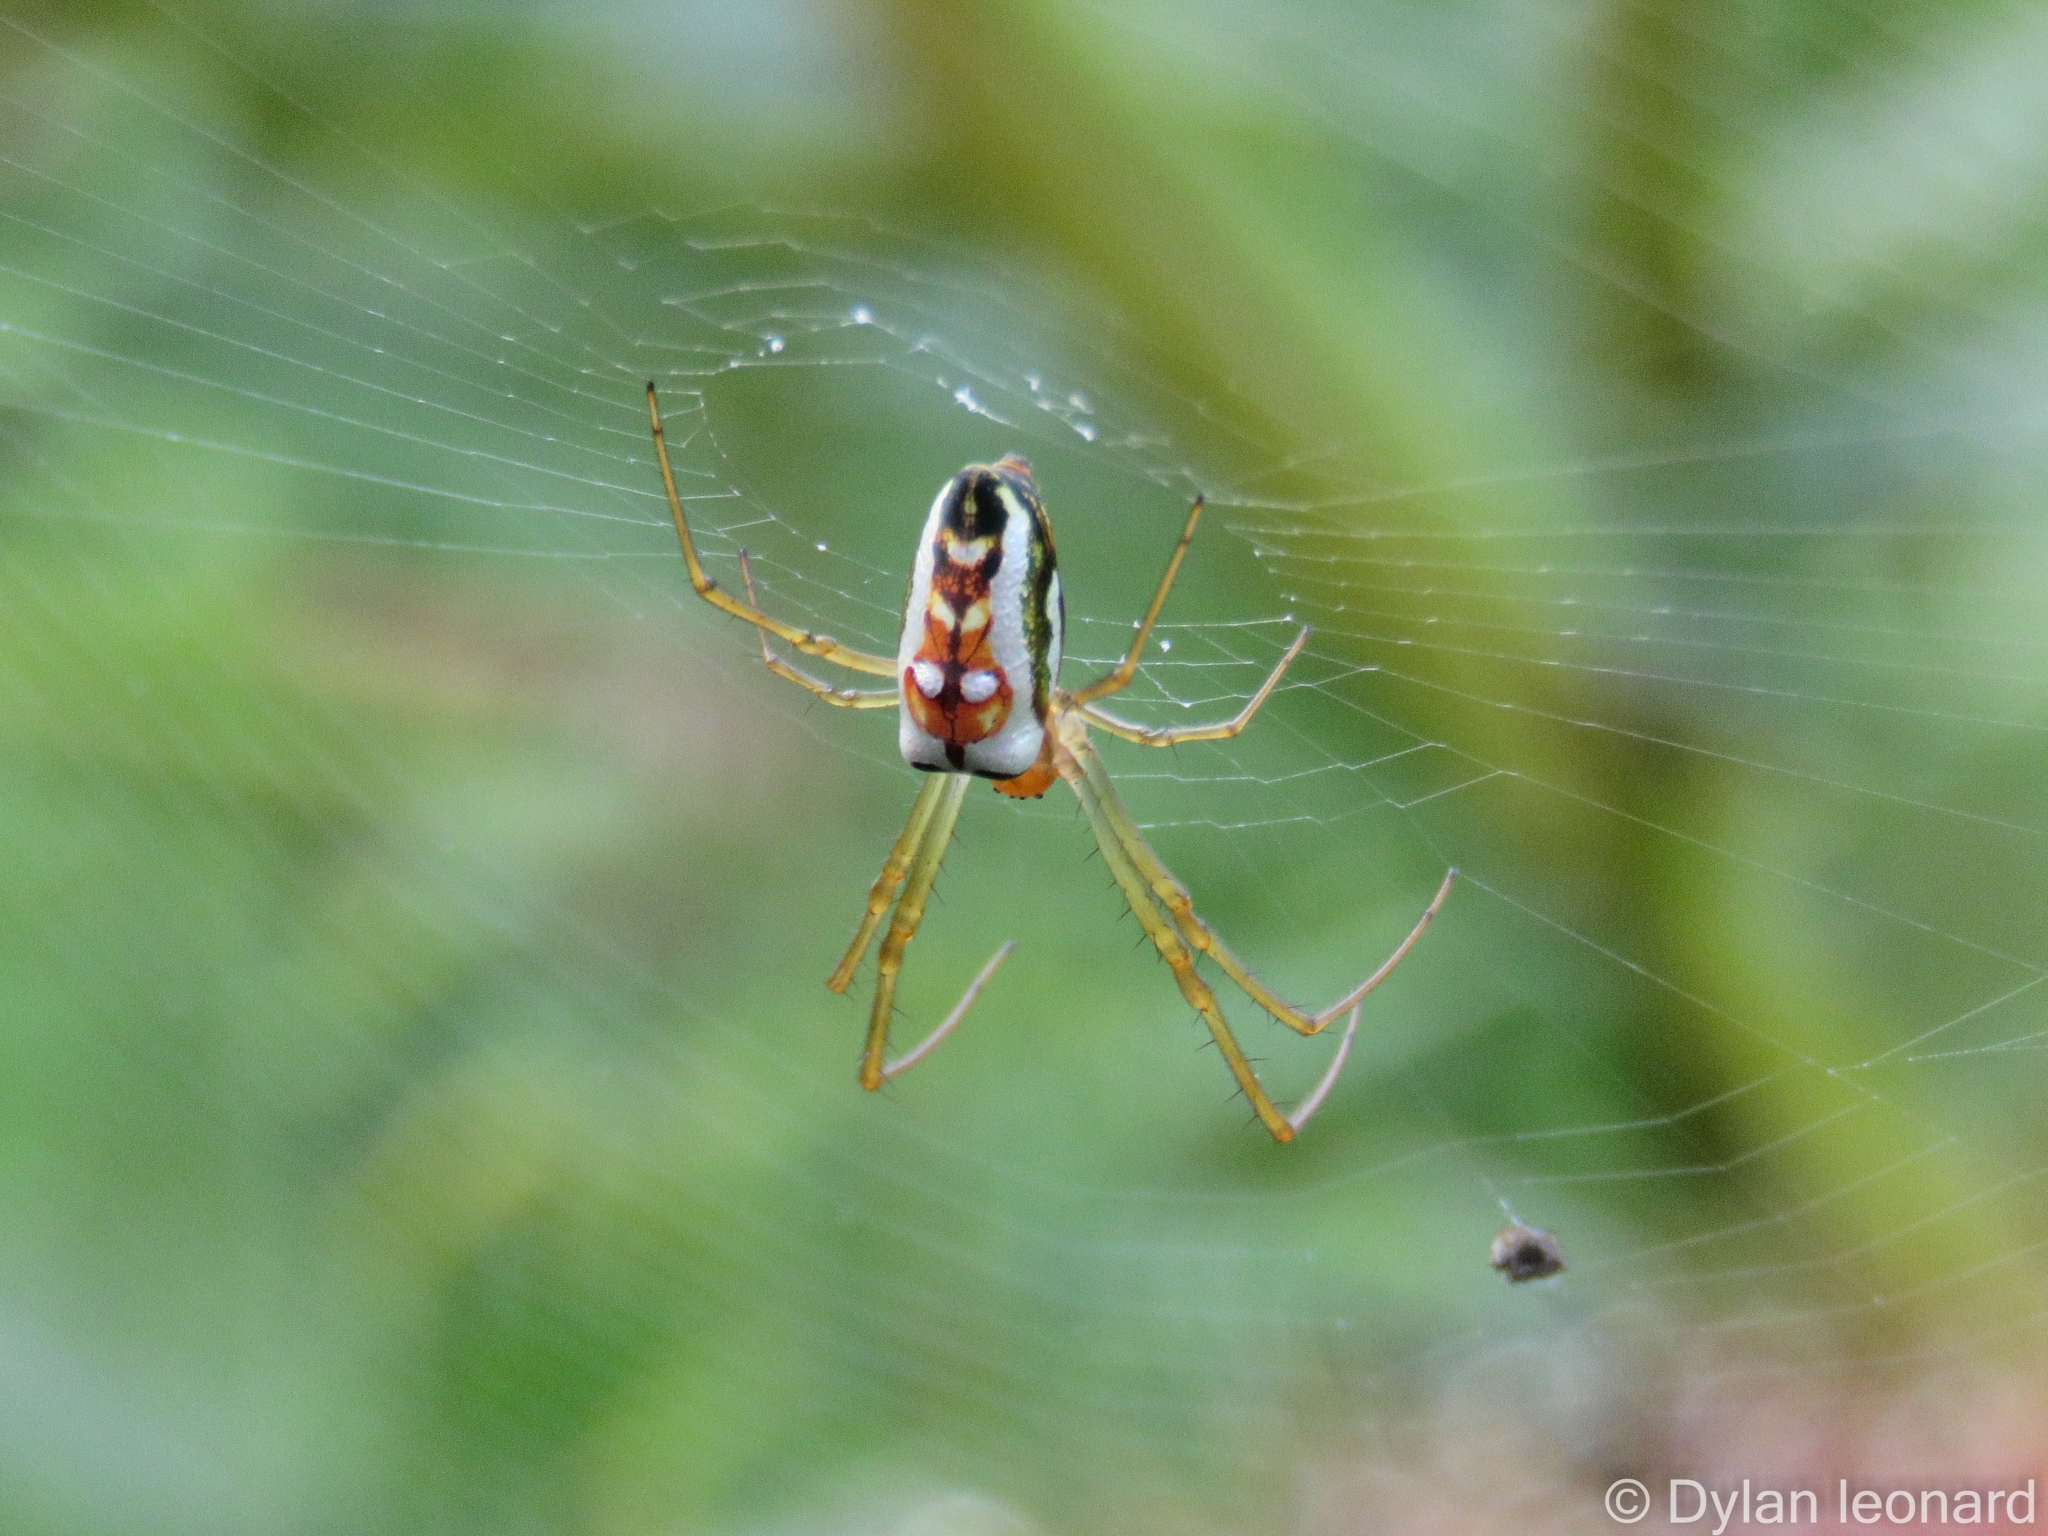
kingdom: Animalia
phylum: Arthropoda
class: Arachnida
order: Araneae
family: Tetragnathidae
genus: Leucauge
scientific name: Leucauge festiva
